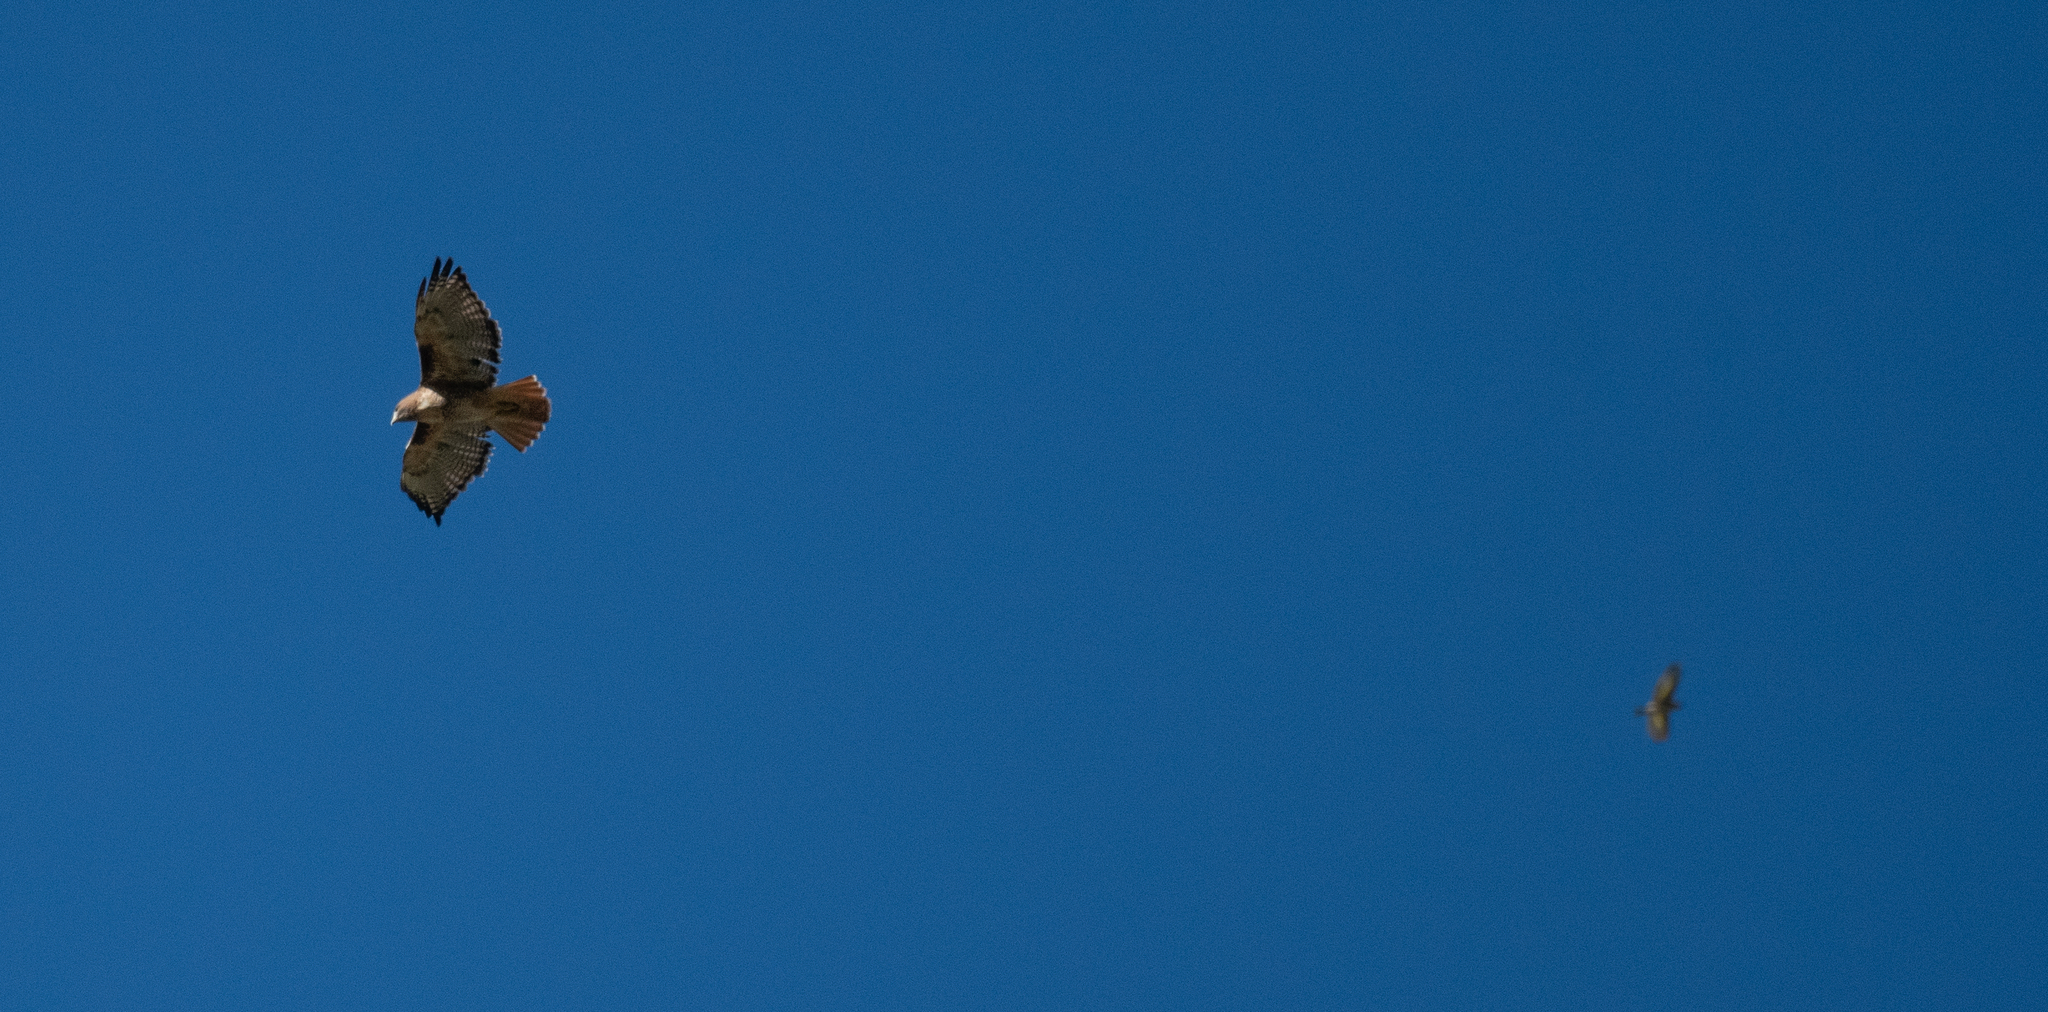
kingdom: Animalia
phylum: Chordata
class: Aves
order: Accipitriformes
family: Accipitridae
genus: Buteo
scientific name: Buteo jamaicensis
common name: Red-tailed hawk
